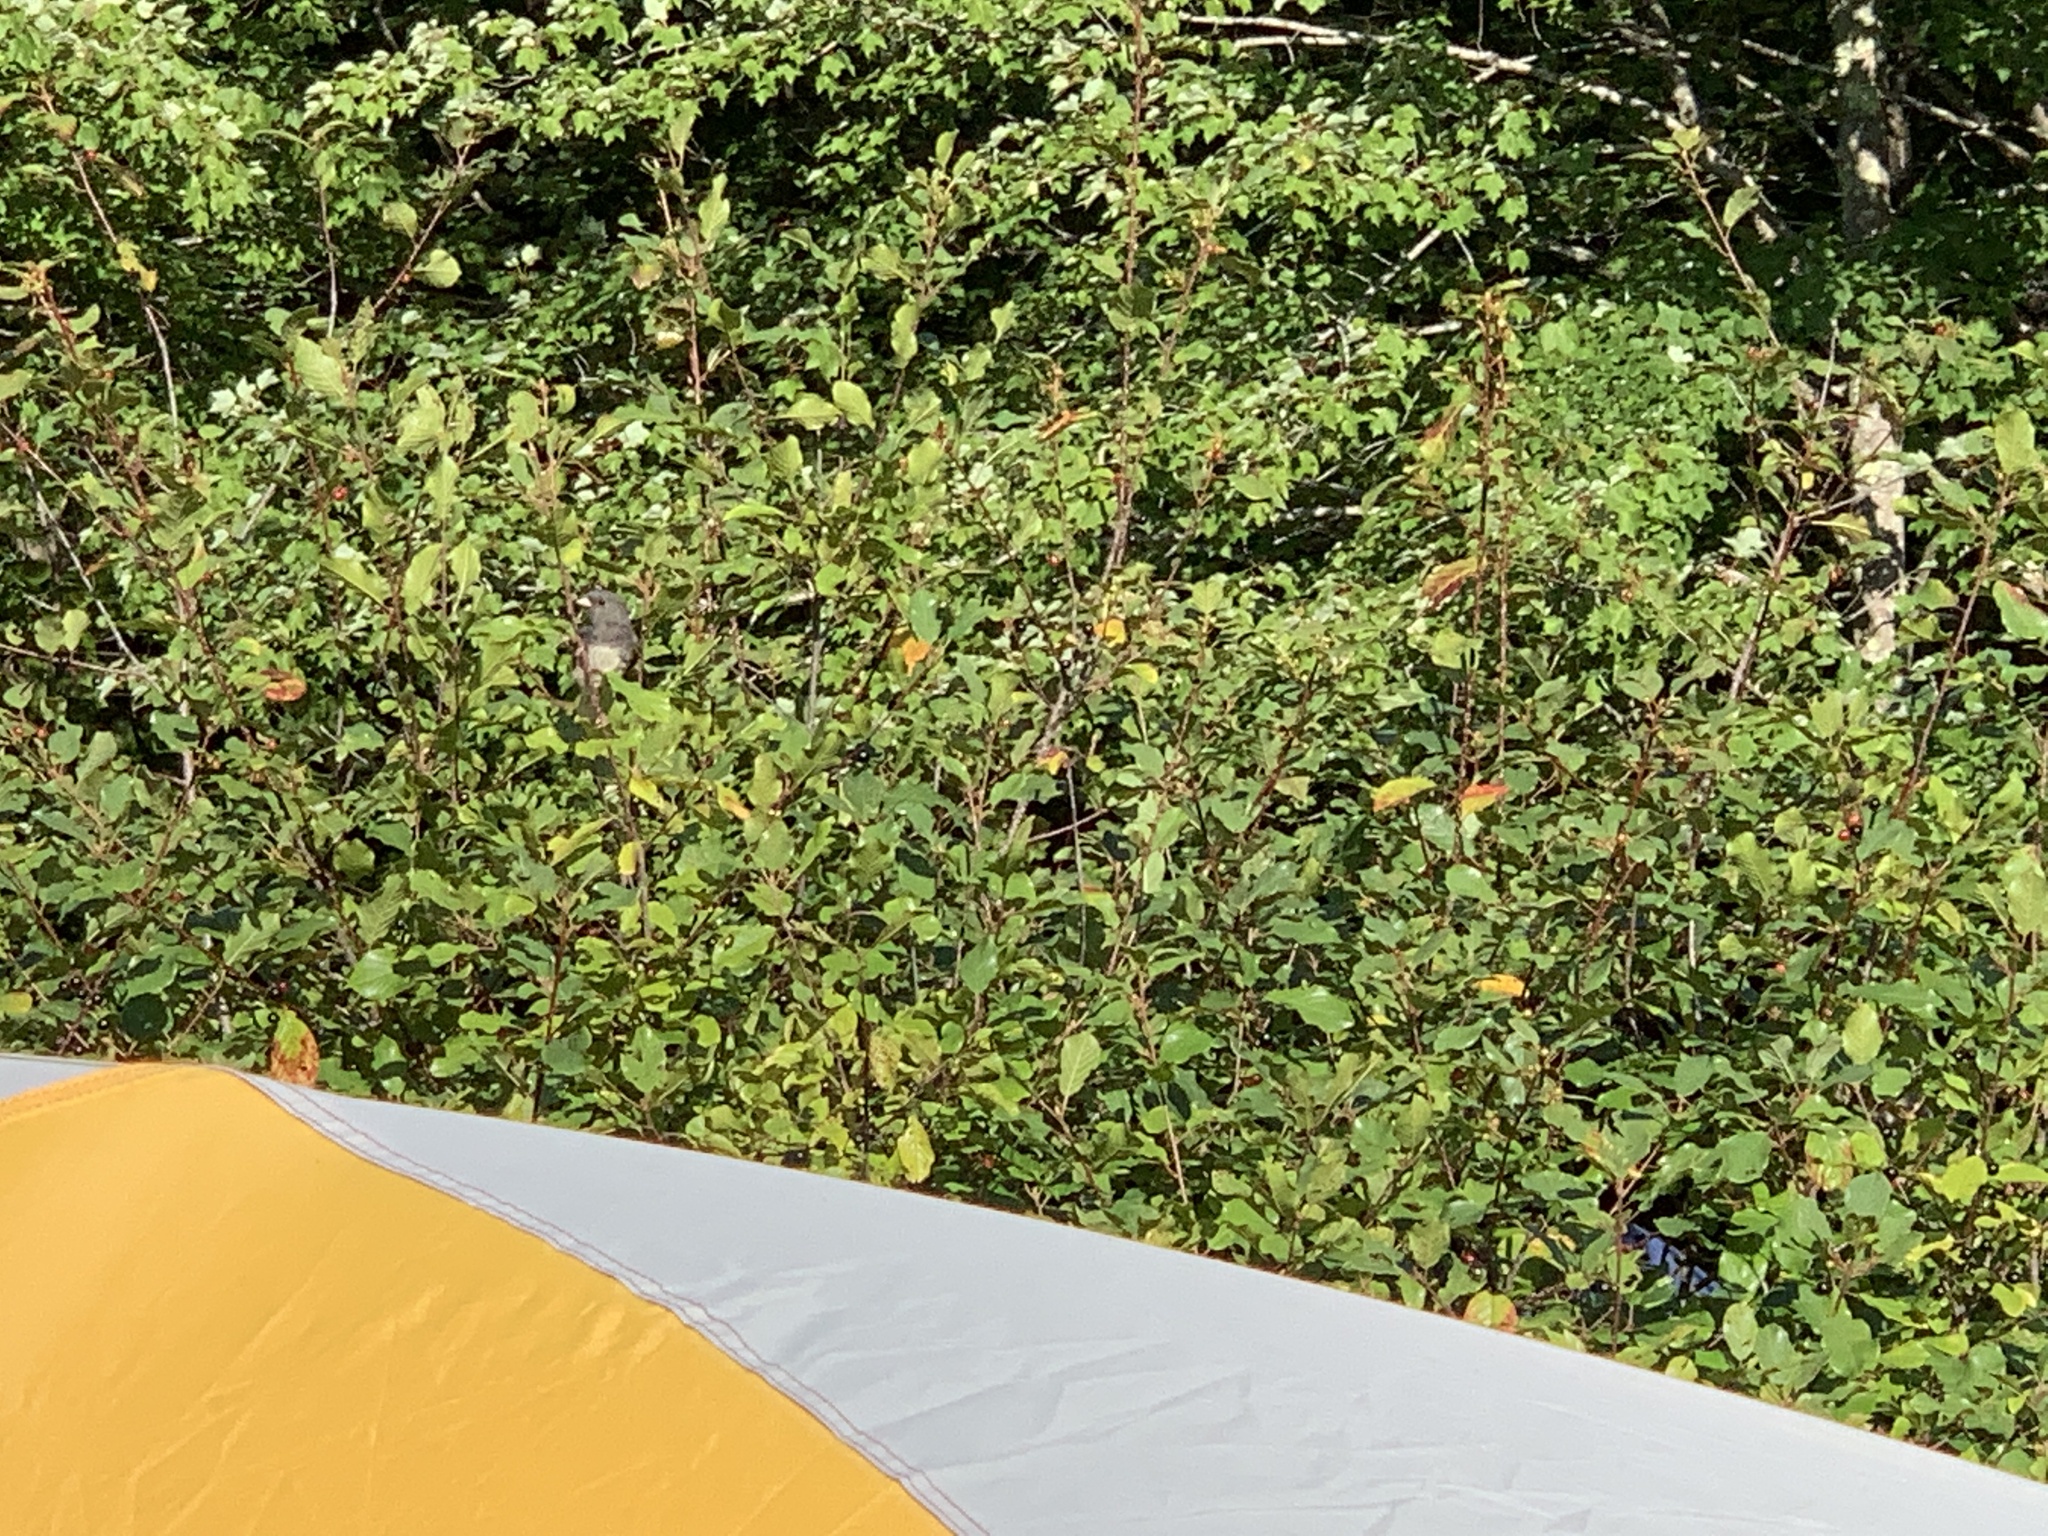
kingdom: Animalia
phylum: Chordata
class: Aves
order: Passeriformes
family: Passerellidae
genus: Junco
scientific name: Junco hyemalis
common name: Dark-eyed junco
